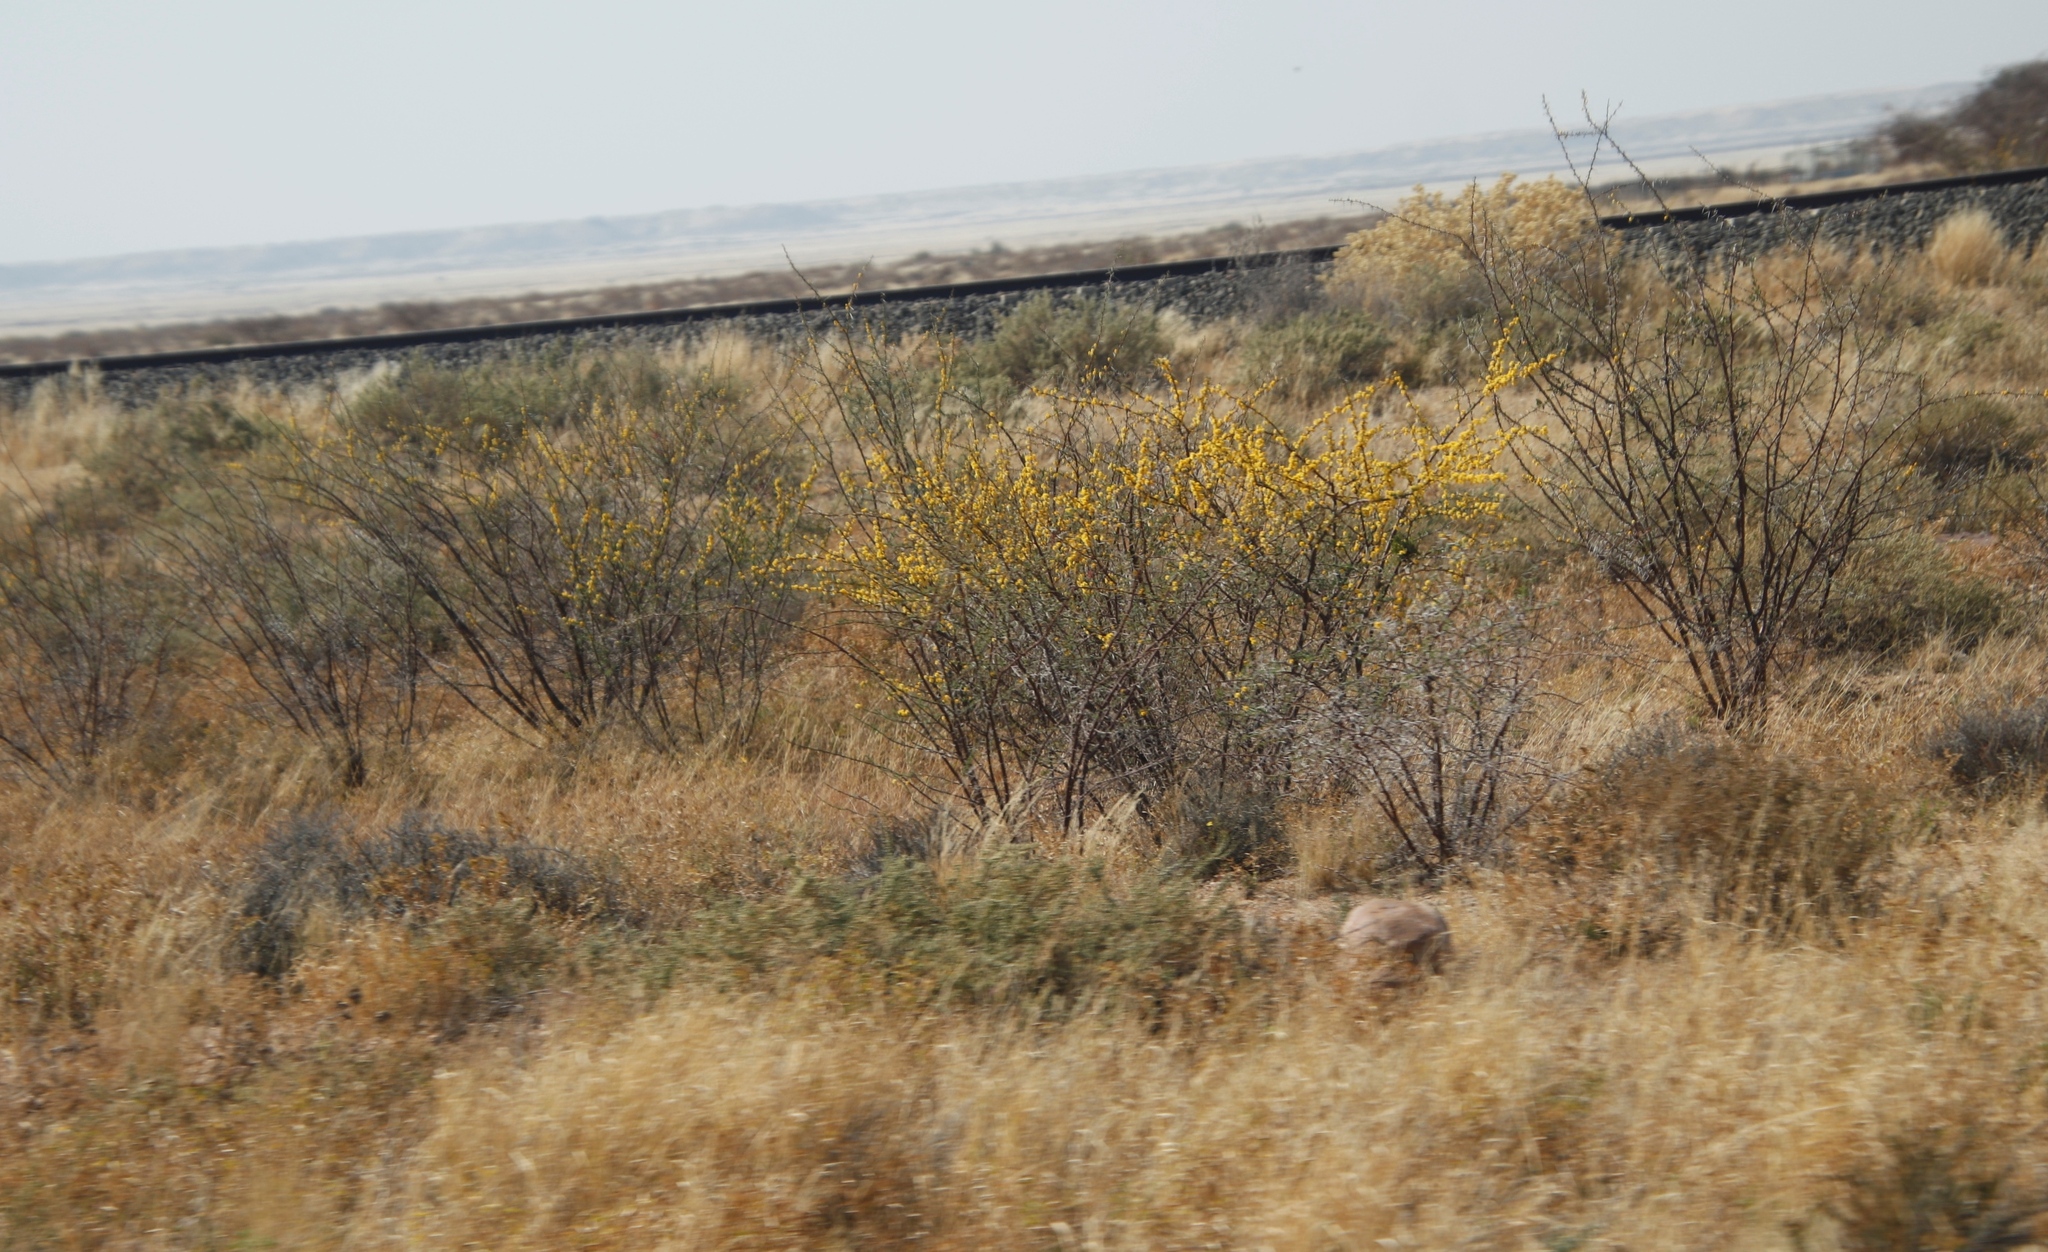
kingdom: Plantae
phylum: Tracheophyta
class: Magnoliopsida
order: Fabales
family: Fabaceae
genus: Vachellia
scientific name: Vachellia nebrownii
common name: Water acacia
